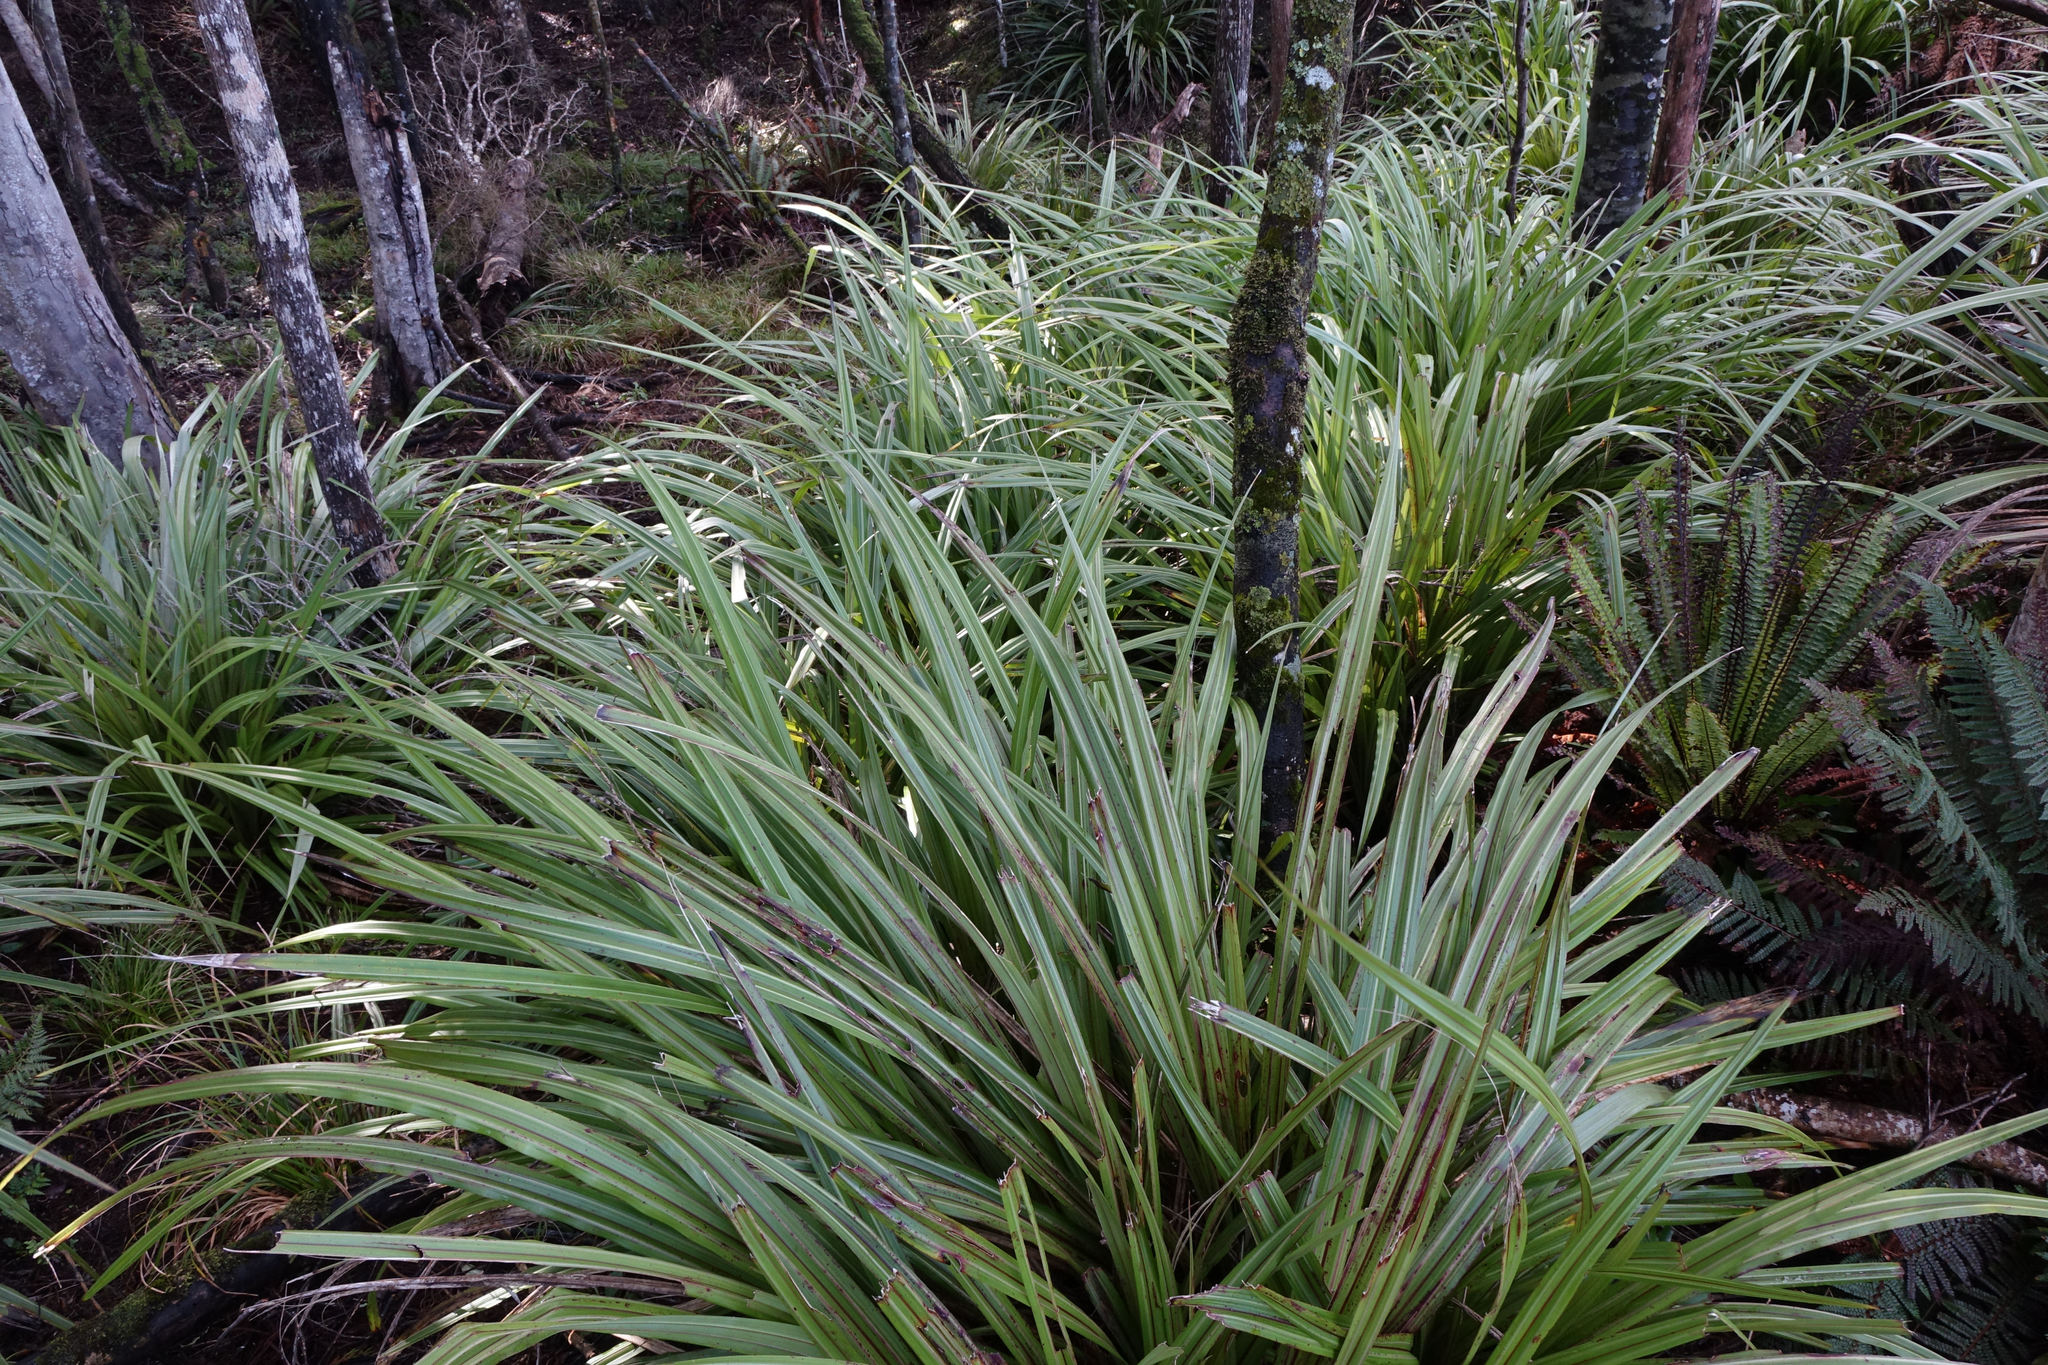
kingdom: Plantae
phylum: Tracheophyta
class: Liliopsida
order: Asparagales
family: Asteliaceae
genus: Astelia
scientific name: Astelia fragrans
